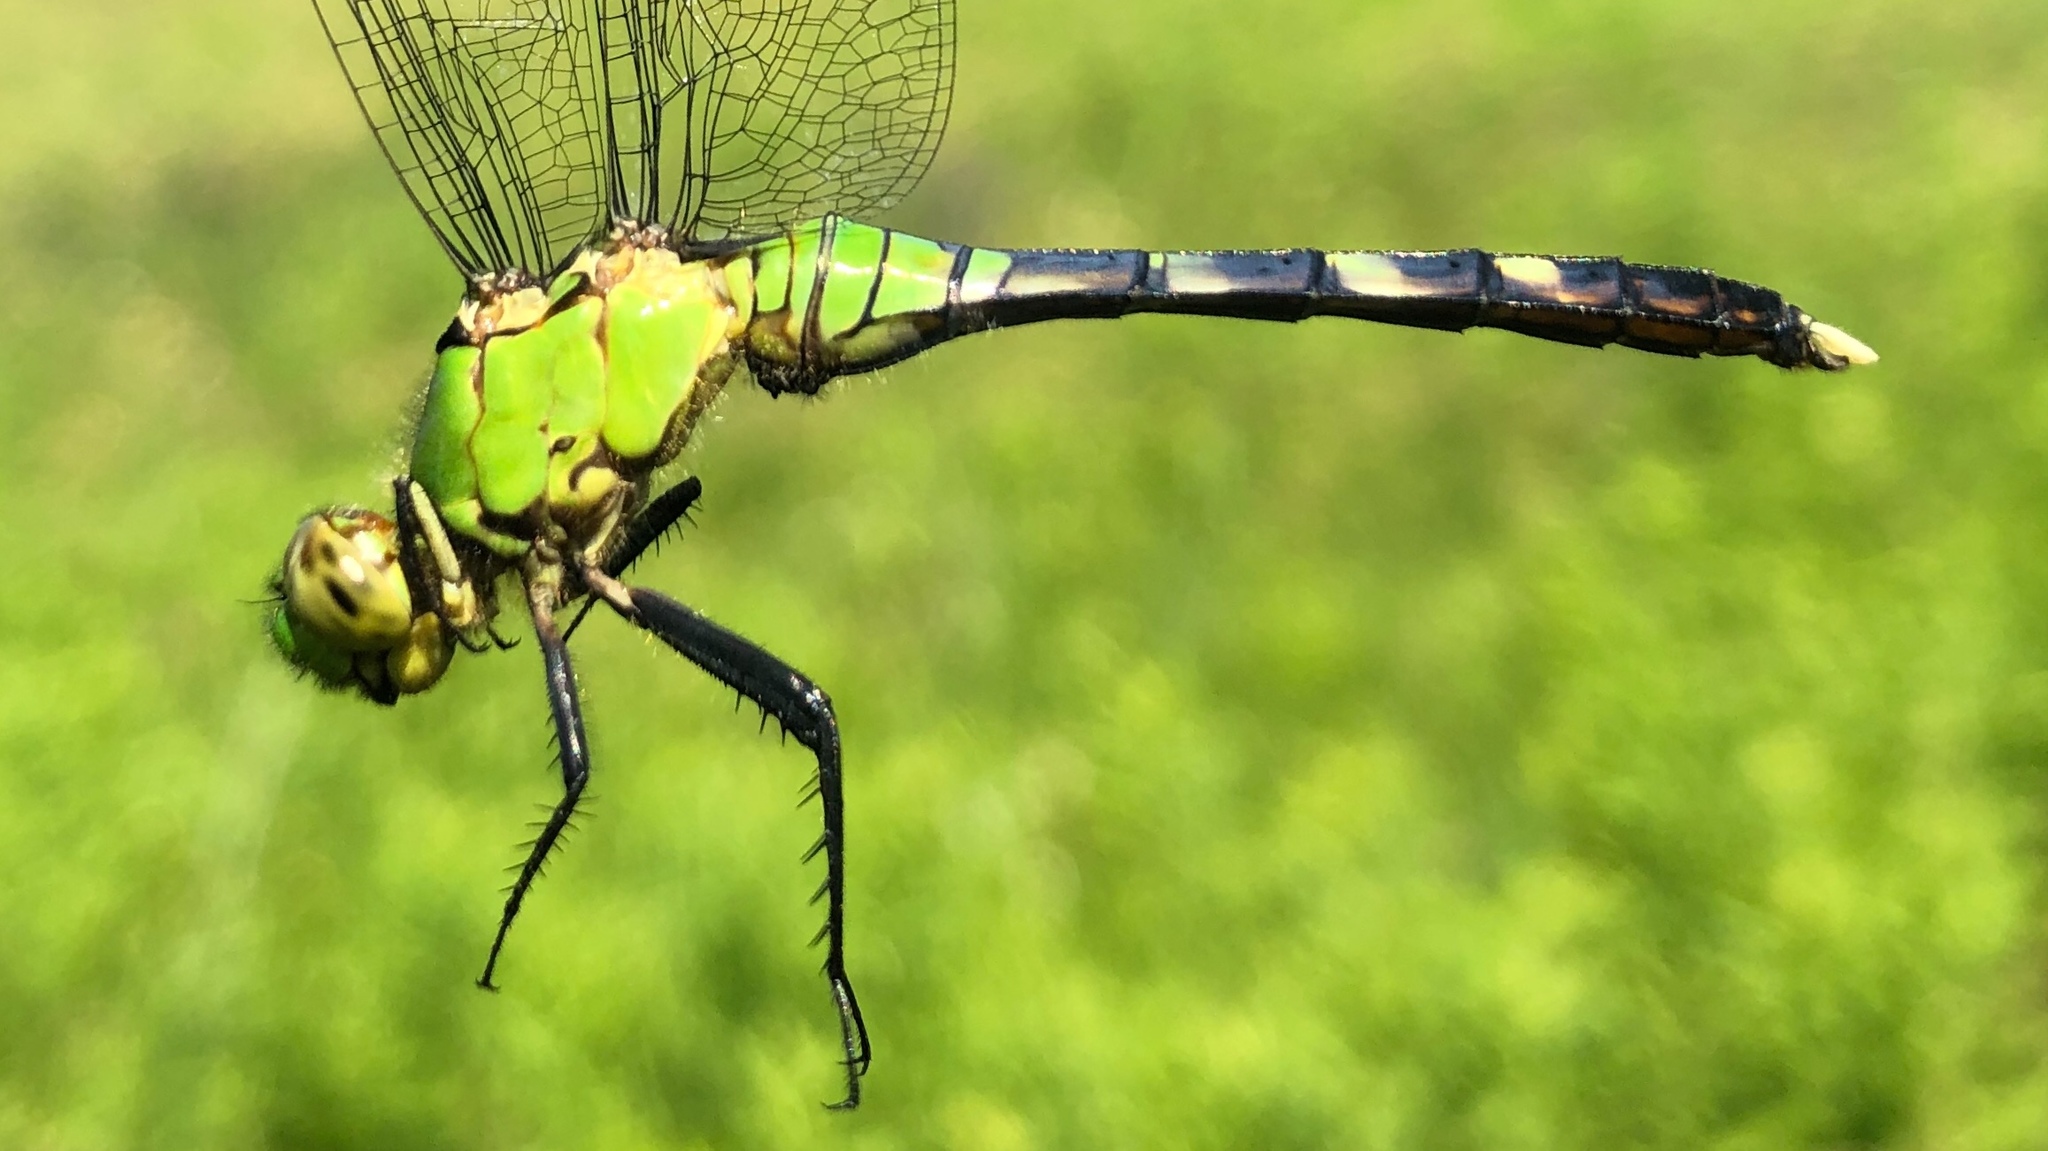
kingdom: Animalia
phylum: Arthropoda
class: Insecta
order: Odonata
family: Libellulidae
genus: Erythemis
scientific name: Erythemis simplicicollis
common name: Eastern pondhawk
